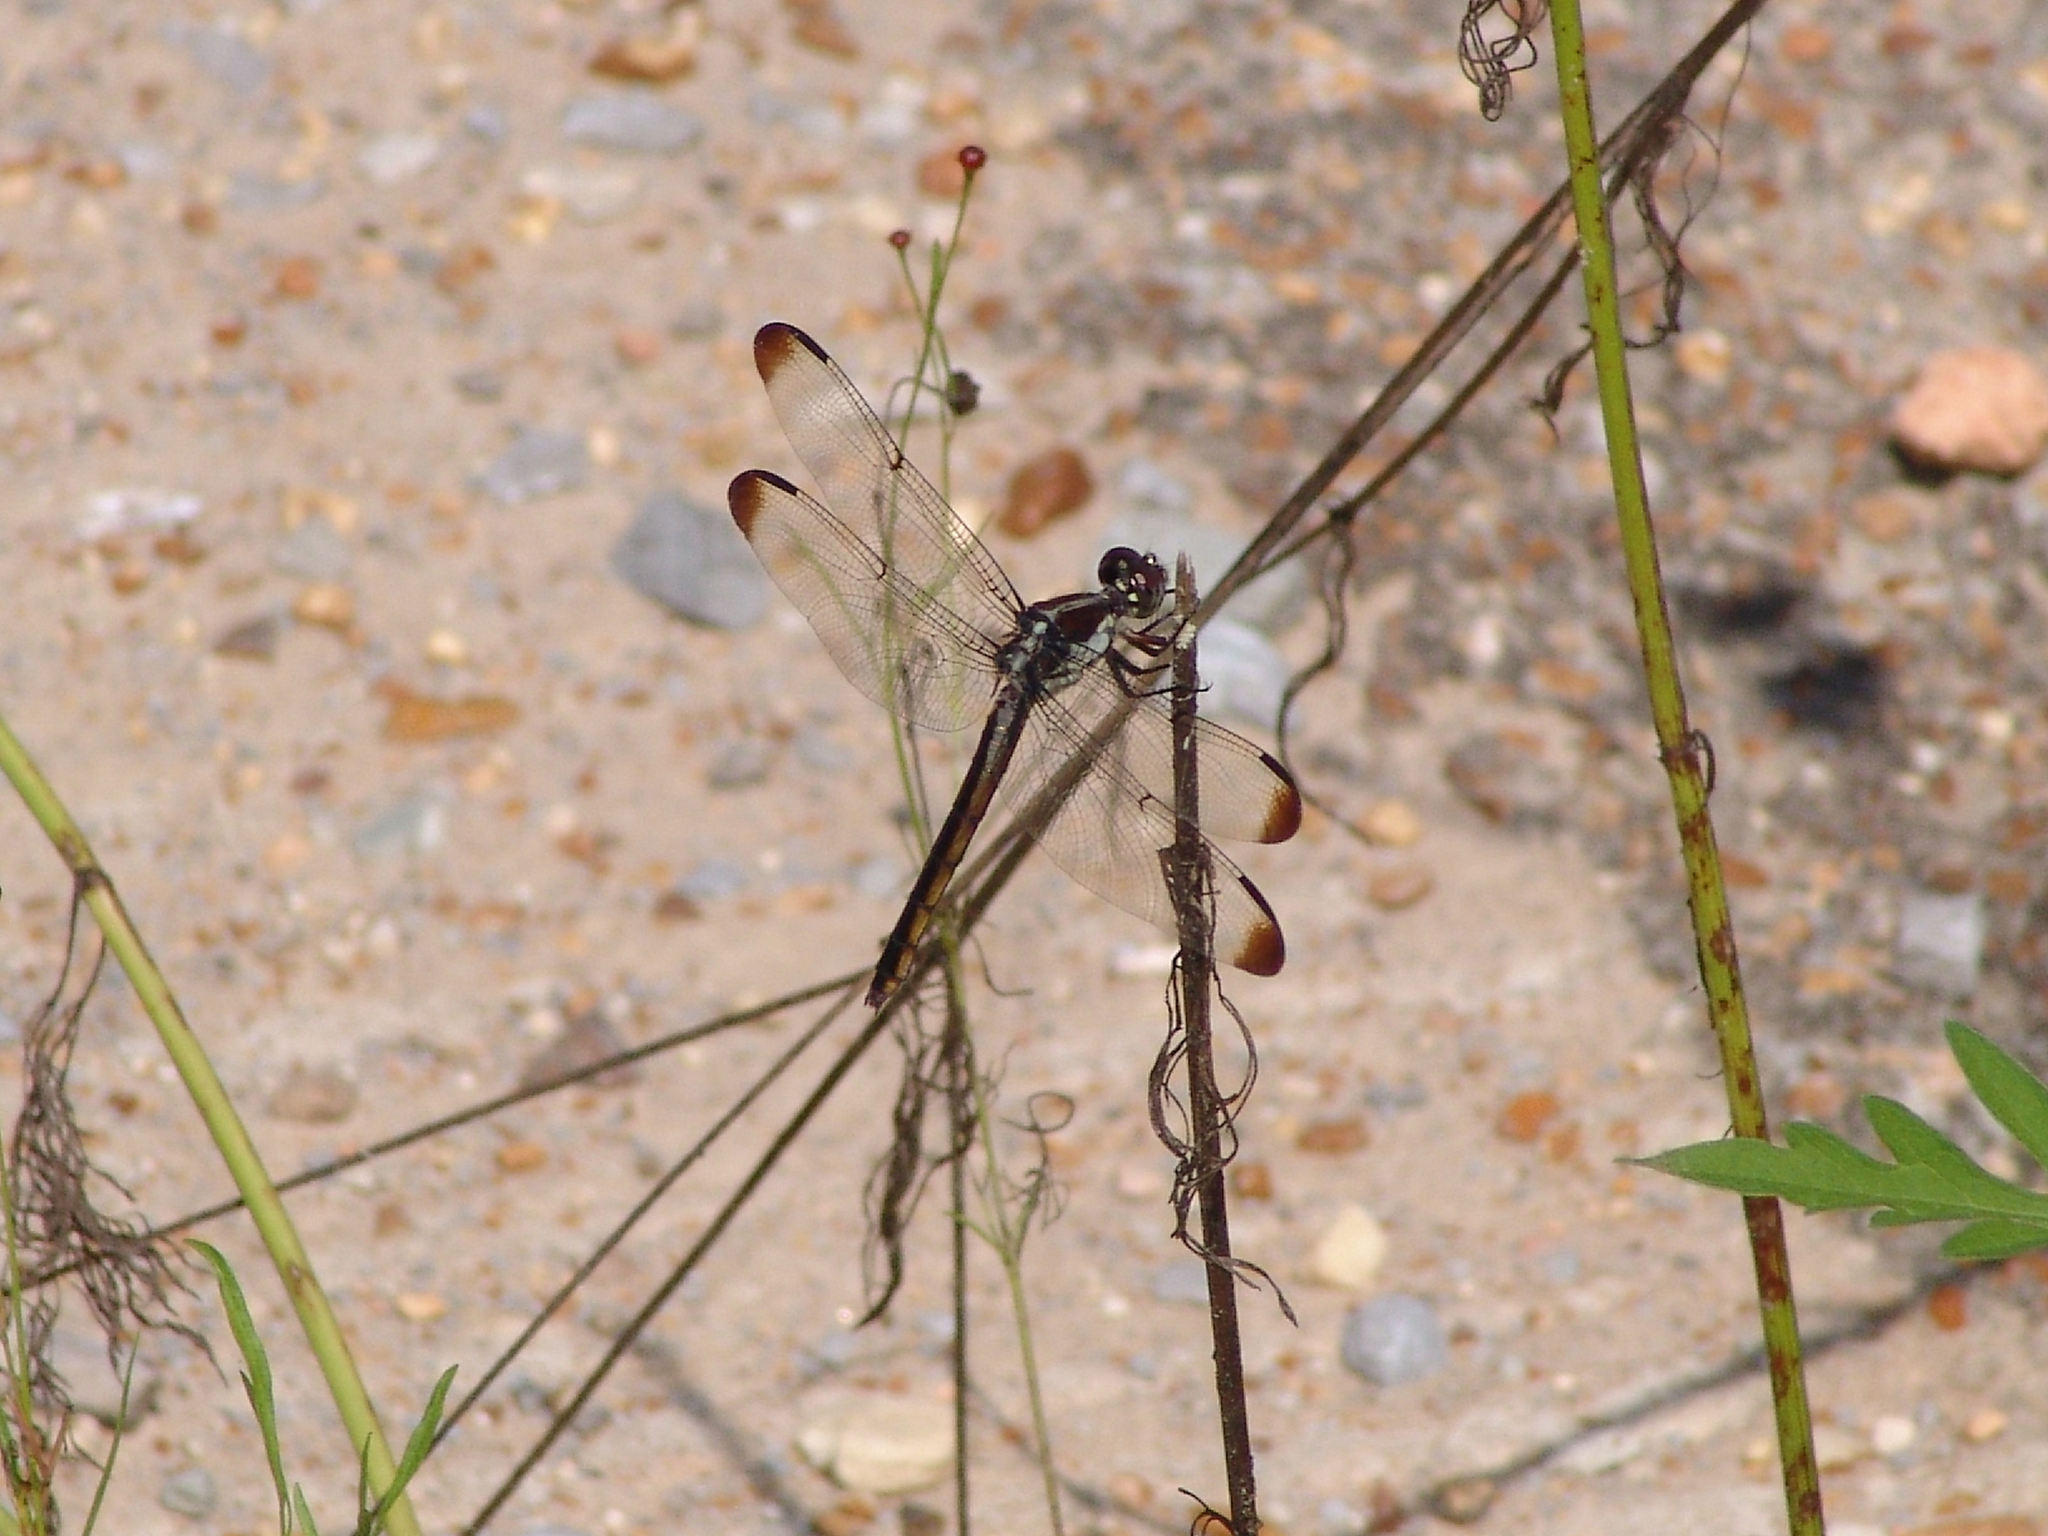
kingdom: Animalia
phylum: Arthropoda
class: Insecta
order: Odonata
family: Libellulidae
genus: Libellula
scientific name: Libellula incesta
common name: Slaty skimmer
